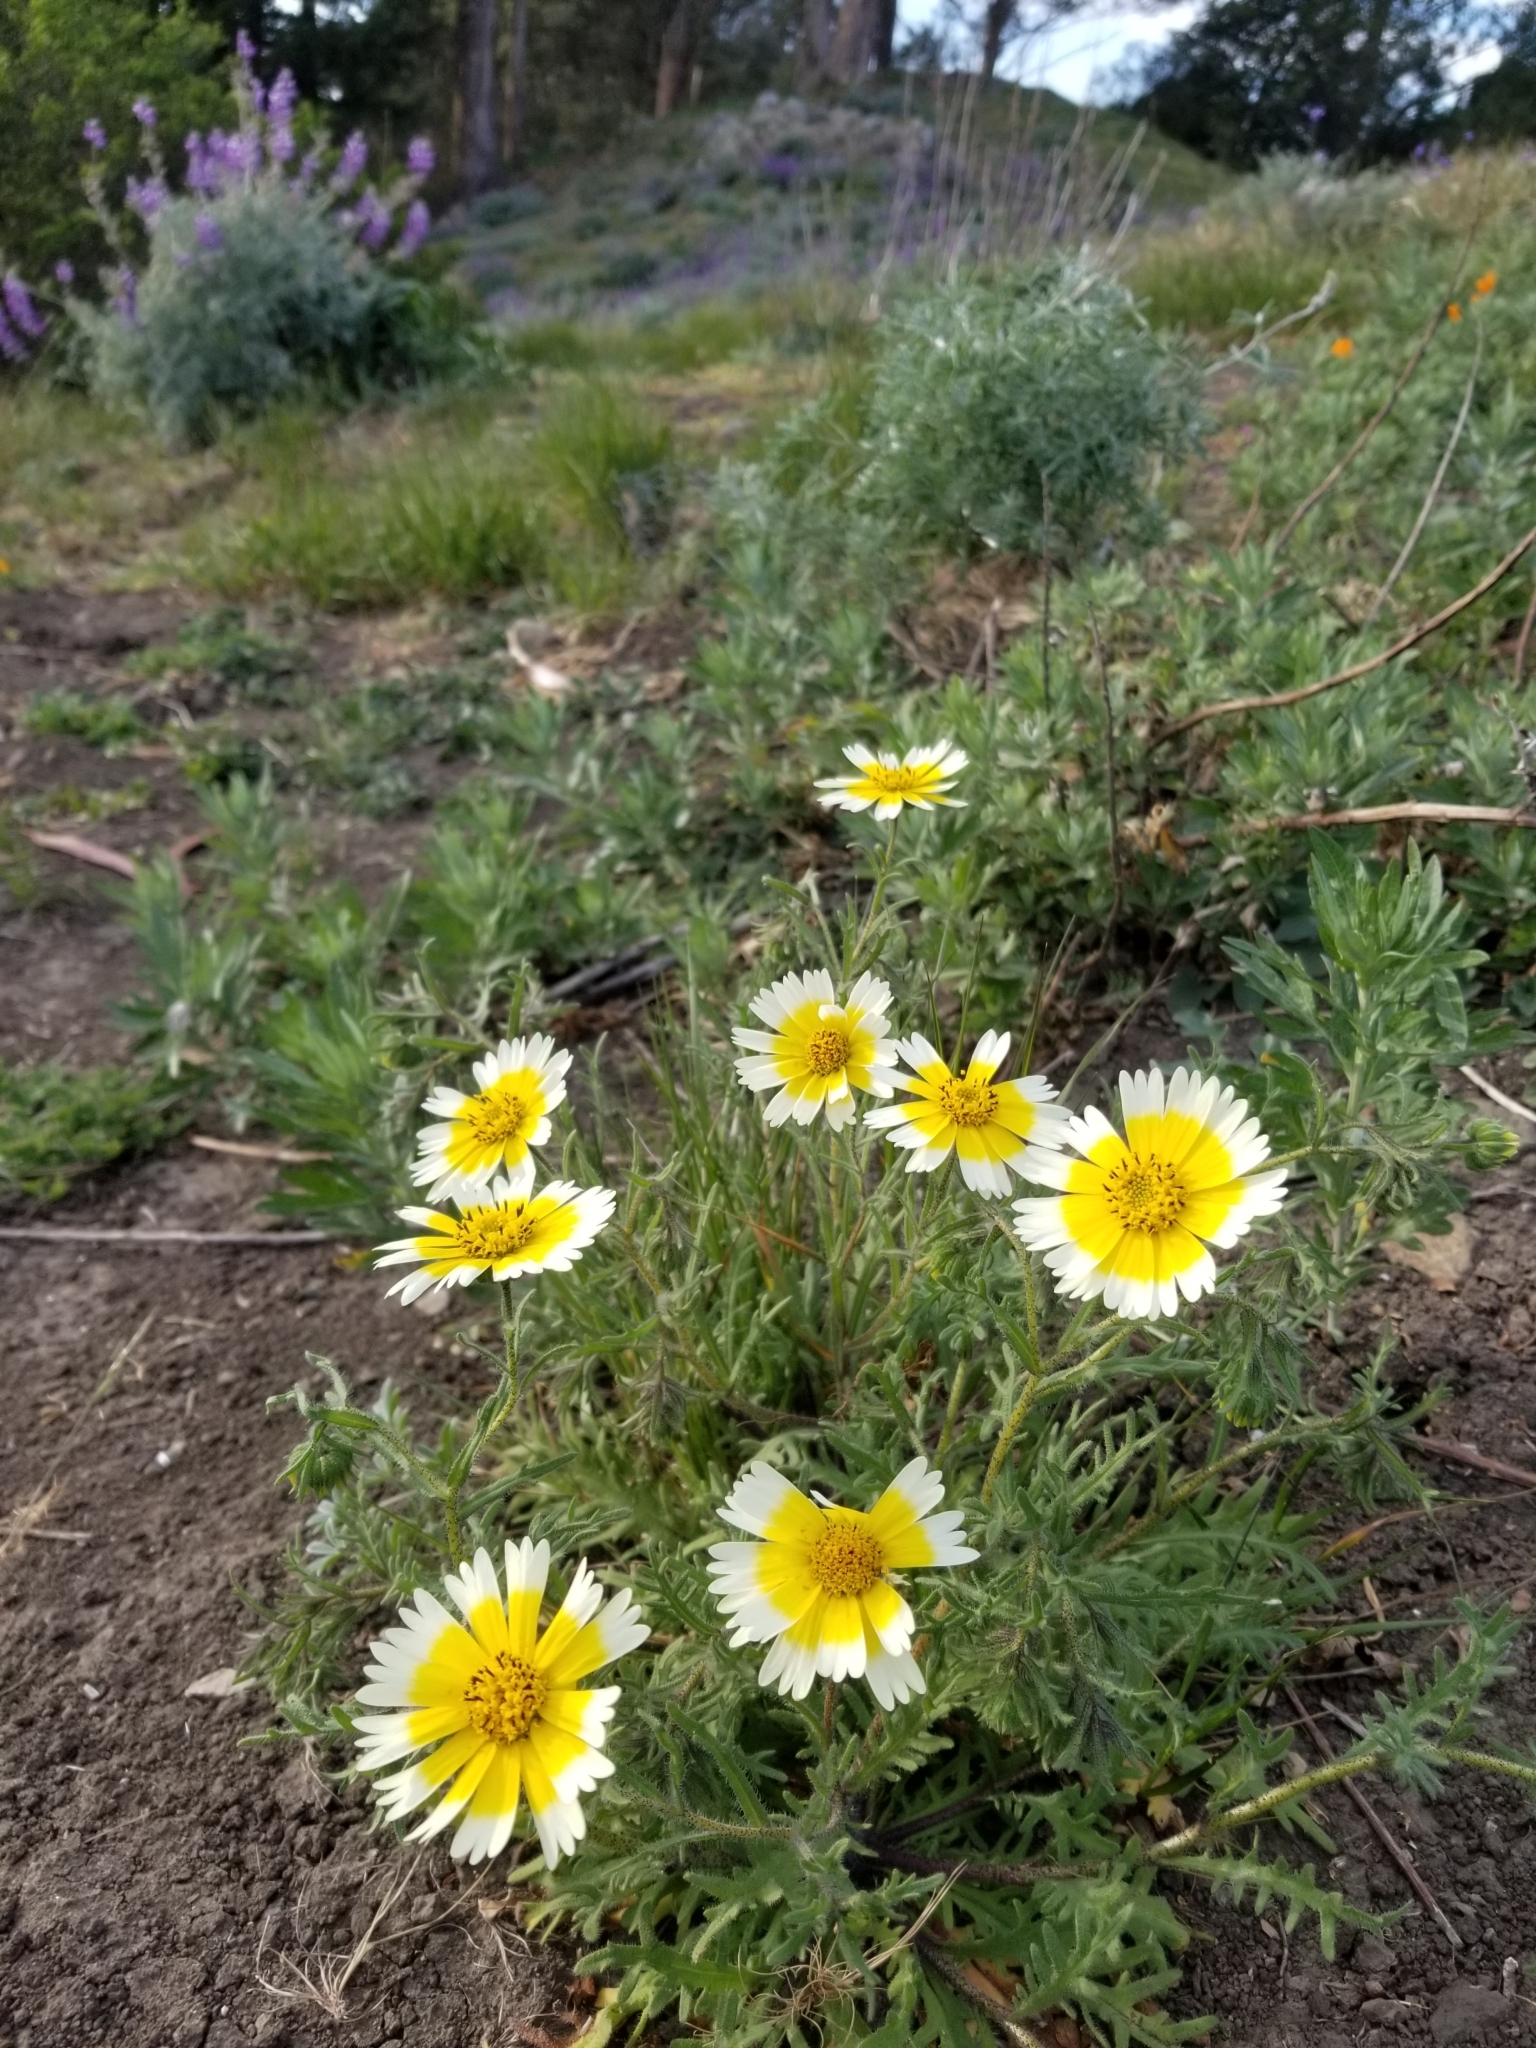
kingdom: Plantae
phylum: Tracheophyta
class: Magnoliopsida
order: Asterales
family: Asteraceae
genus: Layia
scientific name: Layia platyglossa
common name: Tidy-tips
